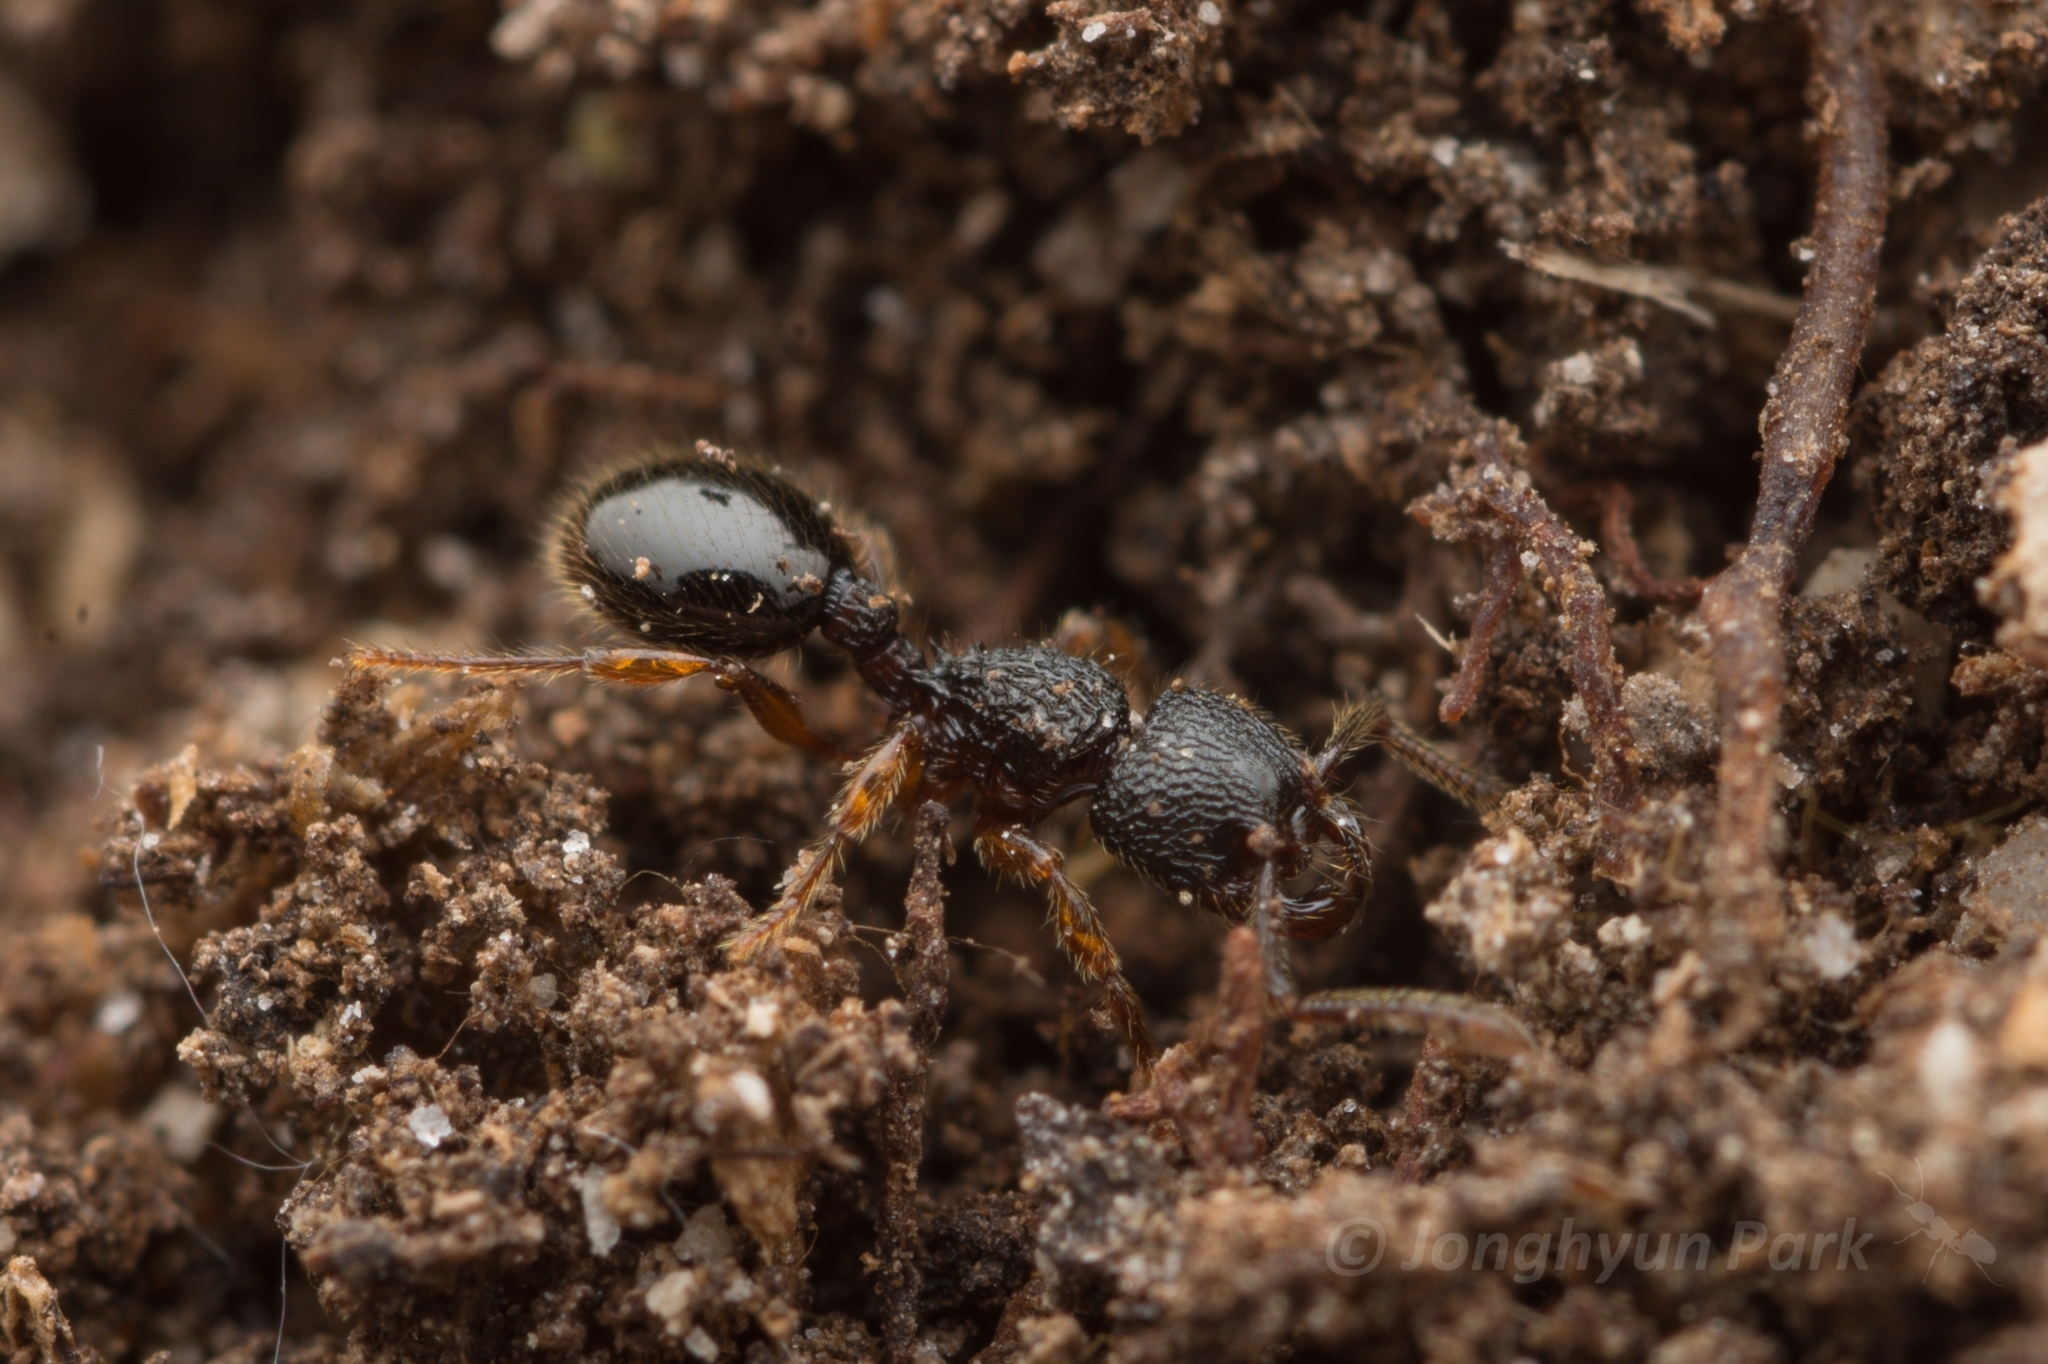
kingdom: Animalia
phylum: Arthropoda
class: Insecta
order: Hymenoptera
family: Formicidae
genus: Myrmecina
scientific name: Myrmecina nipponica
